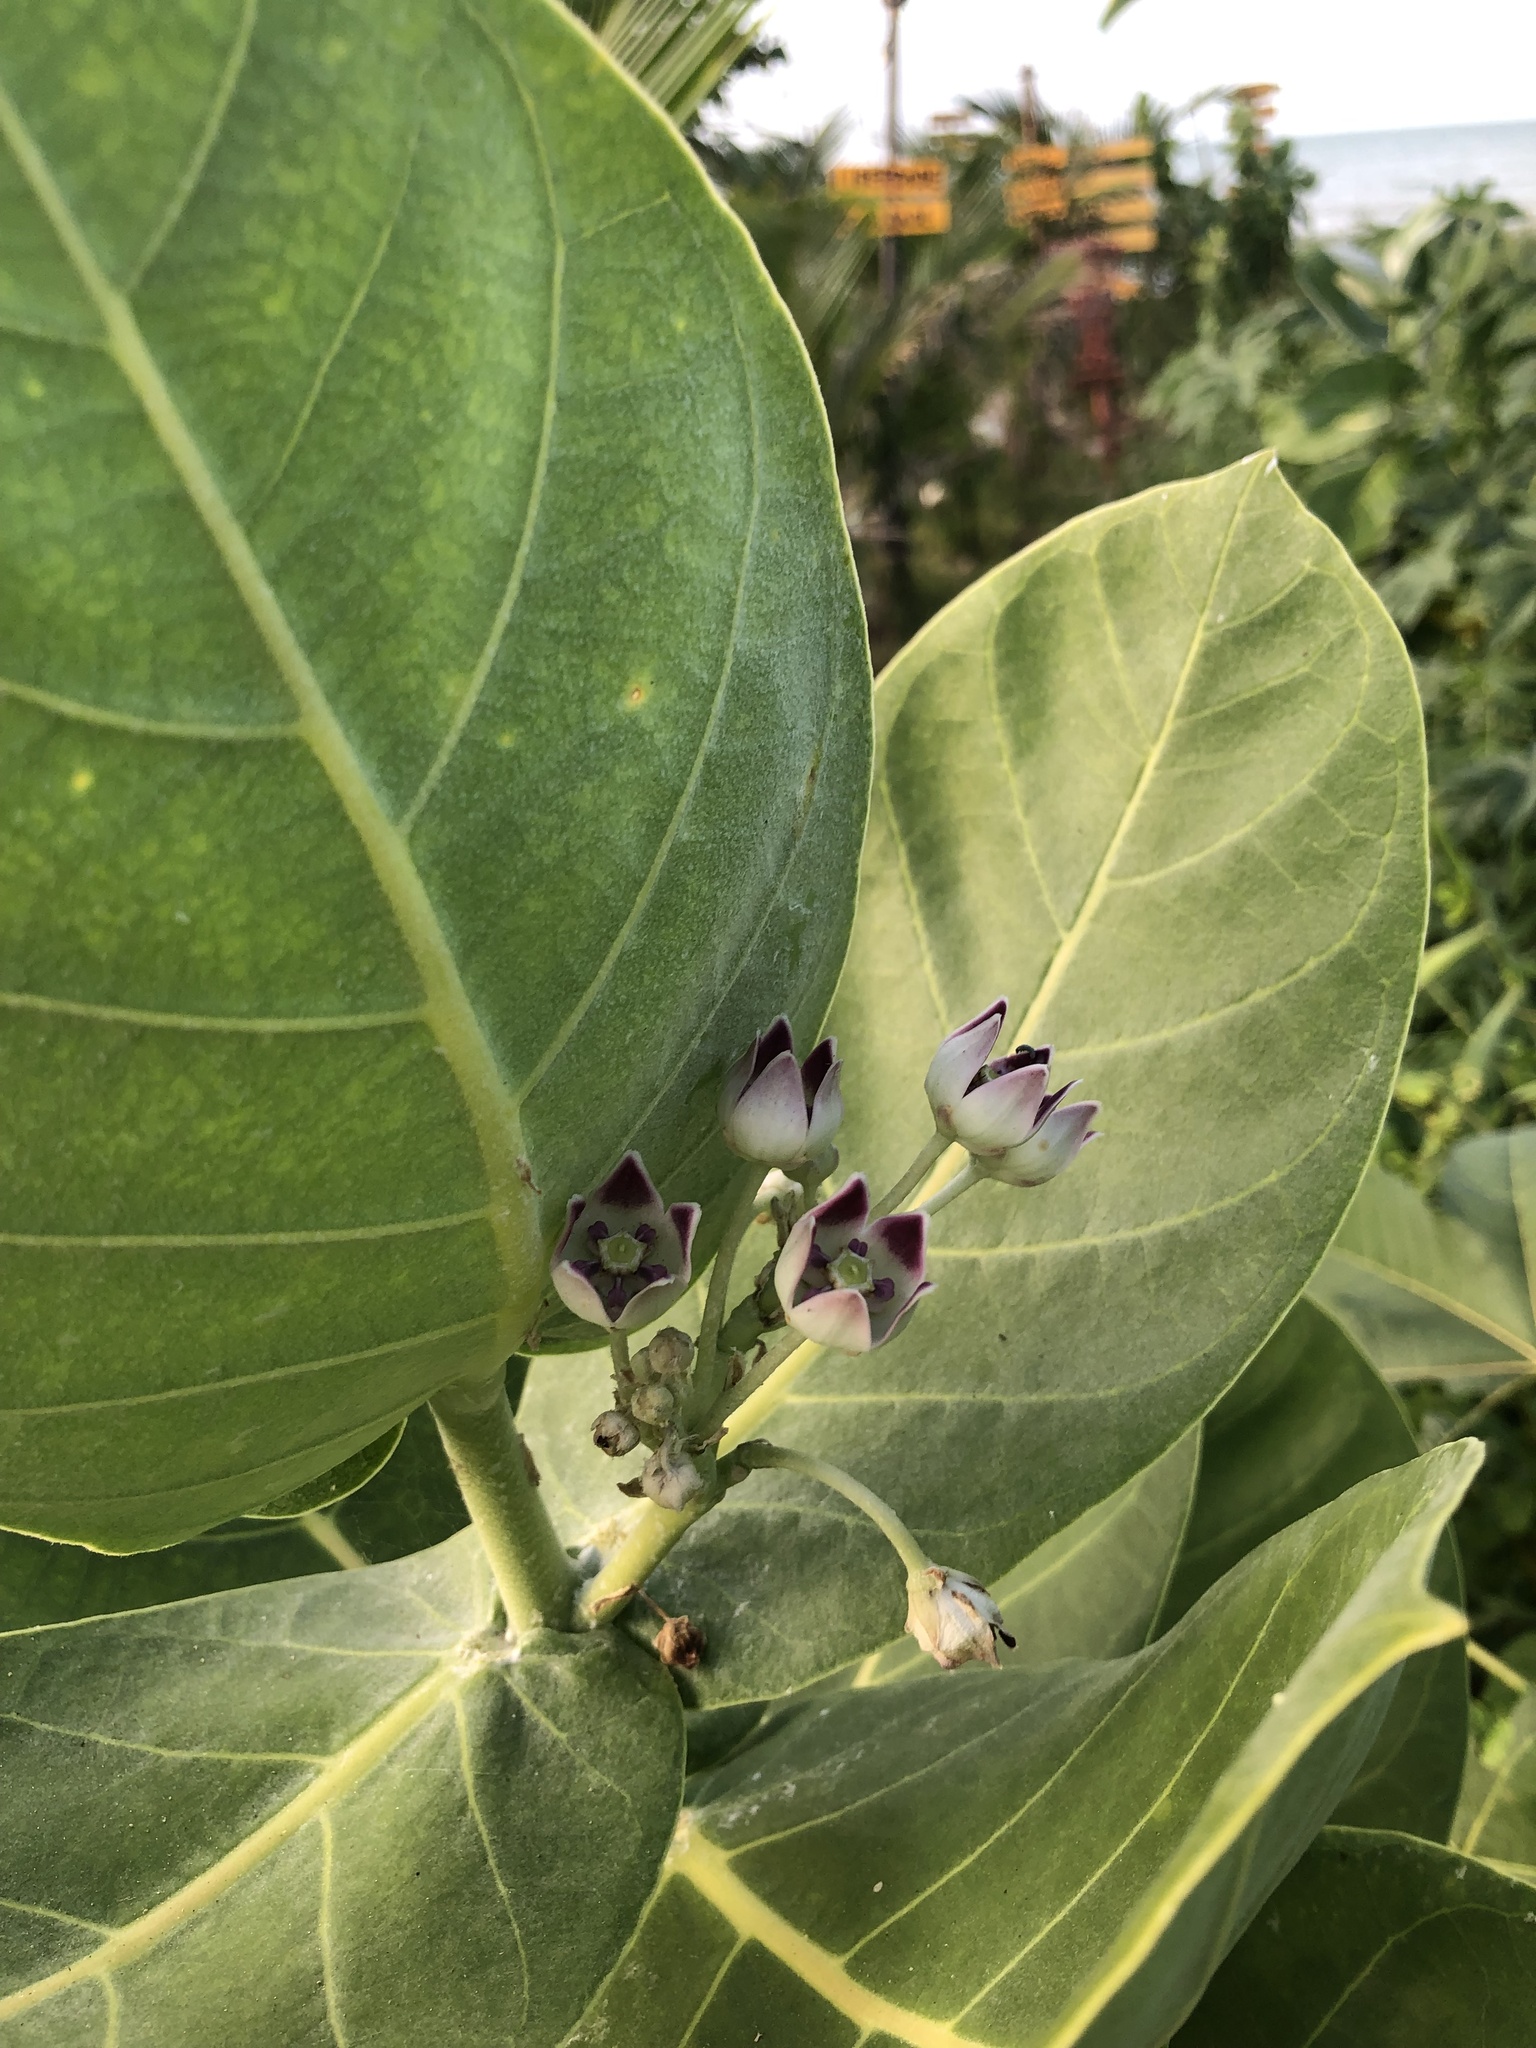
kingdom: Plantae
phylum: Tracheophyta
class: Magnoliopsida
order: Gentianales
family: Apocynaceae
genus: Calotropis
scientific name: Calotropis procera
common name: Roostertree
